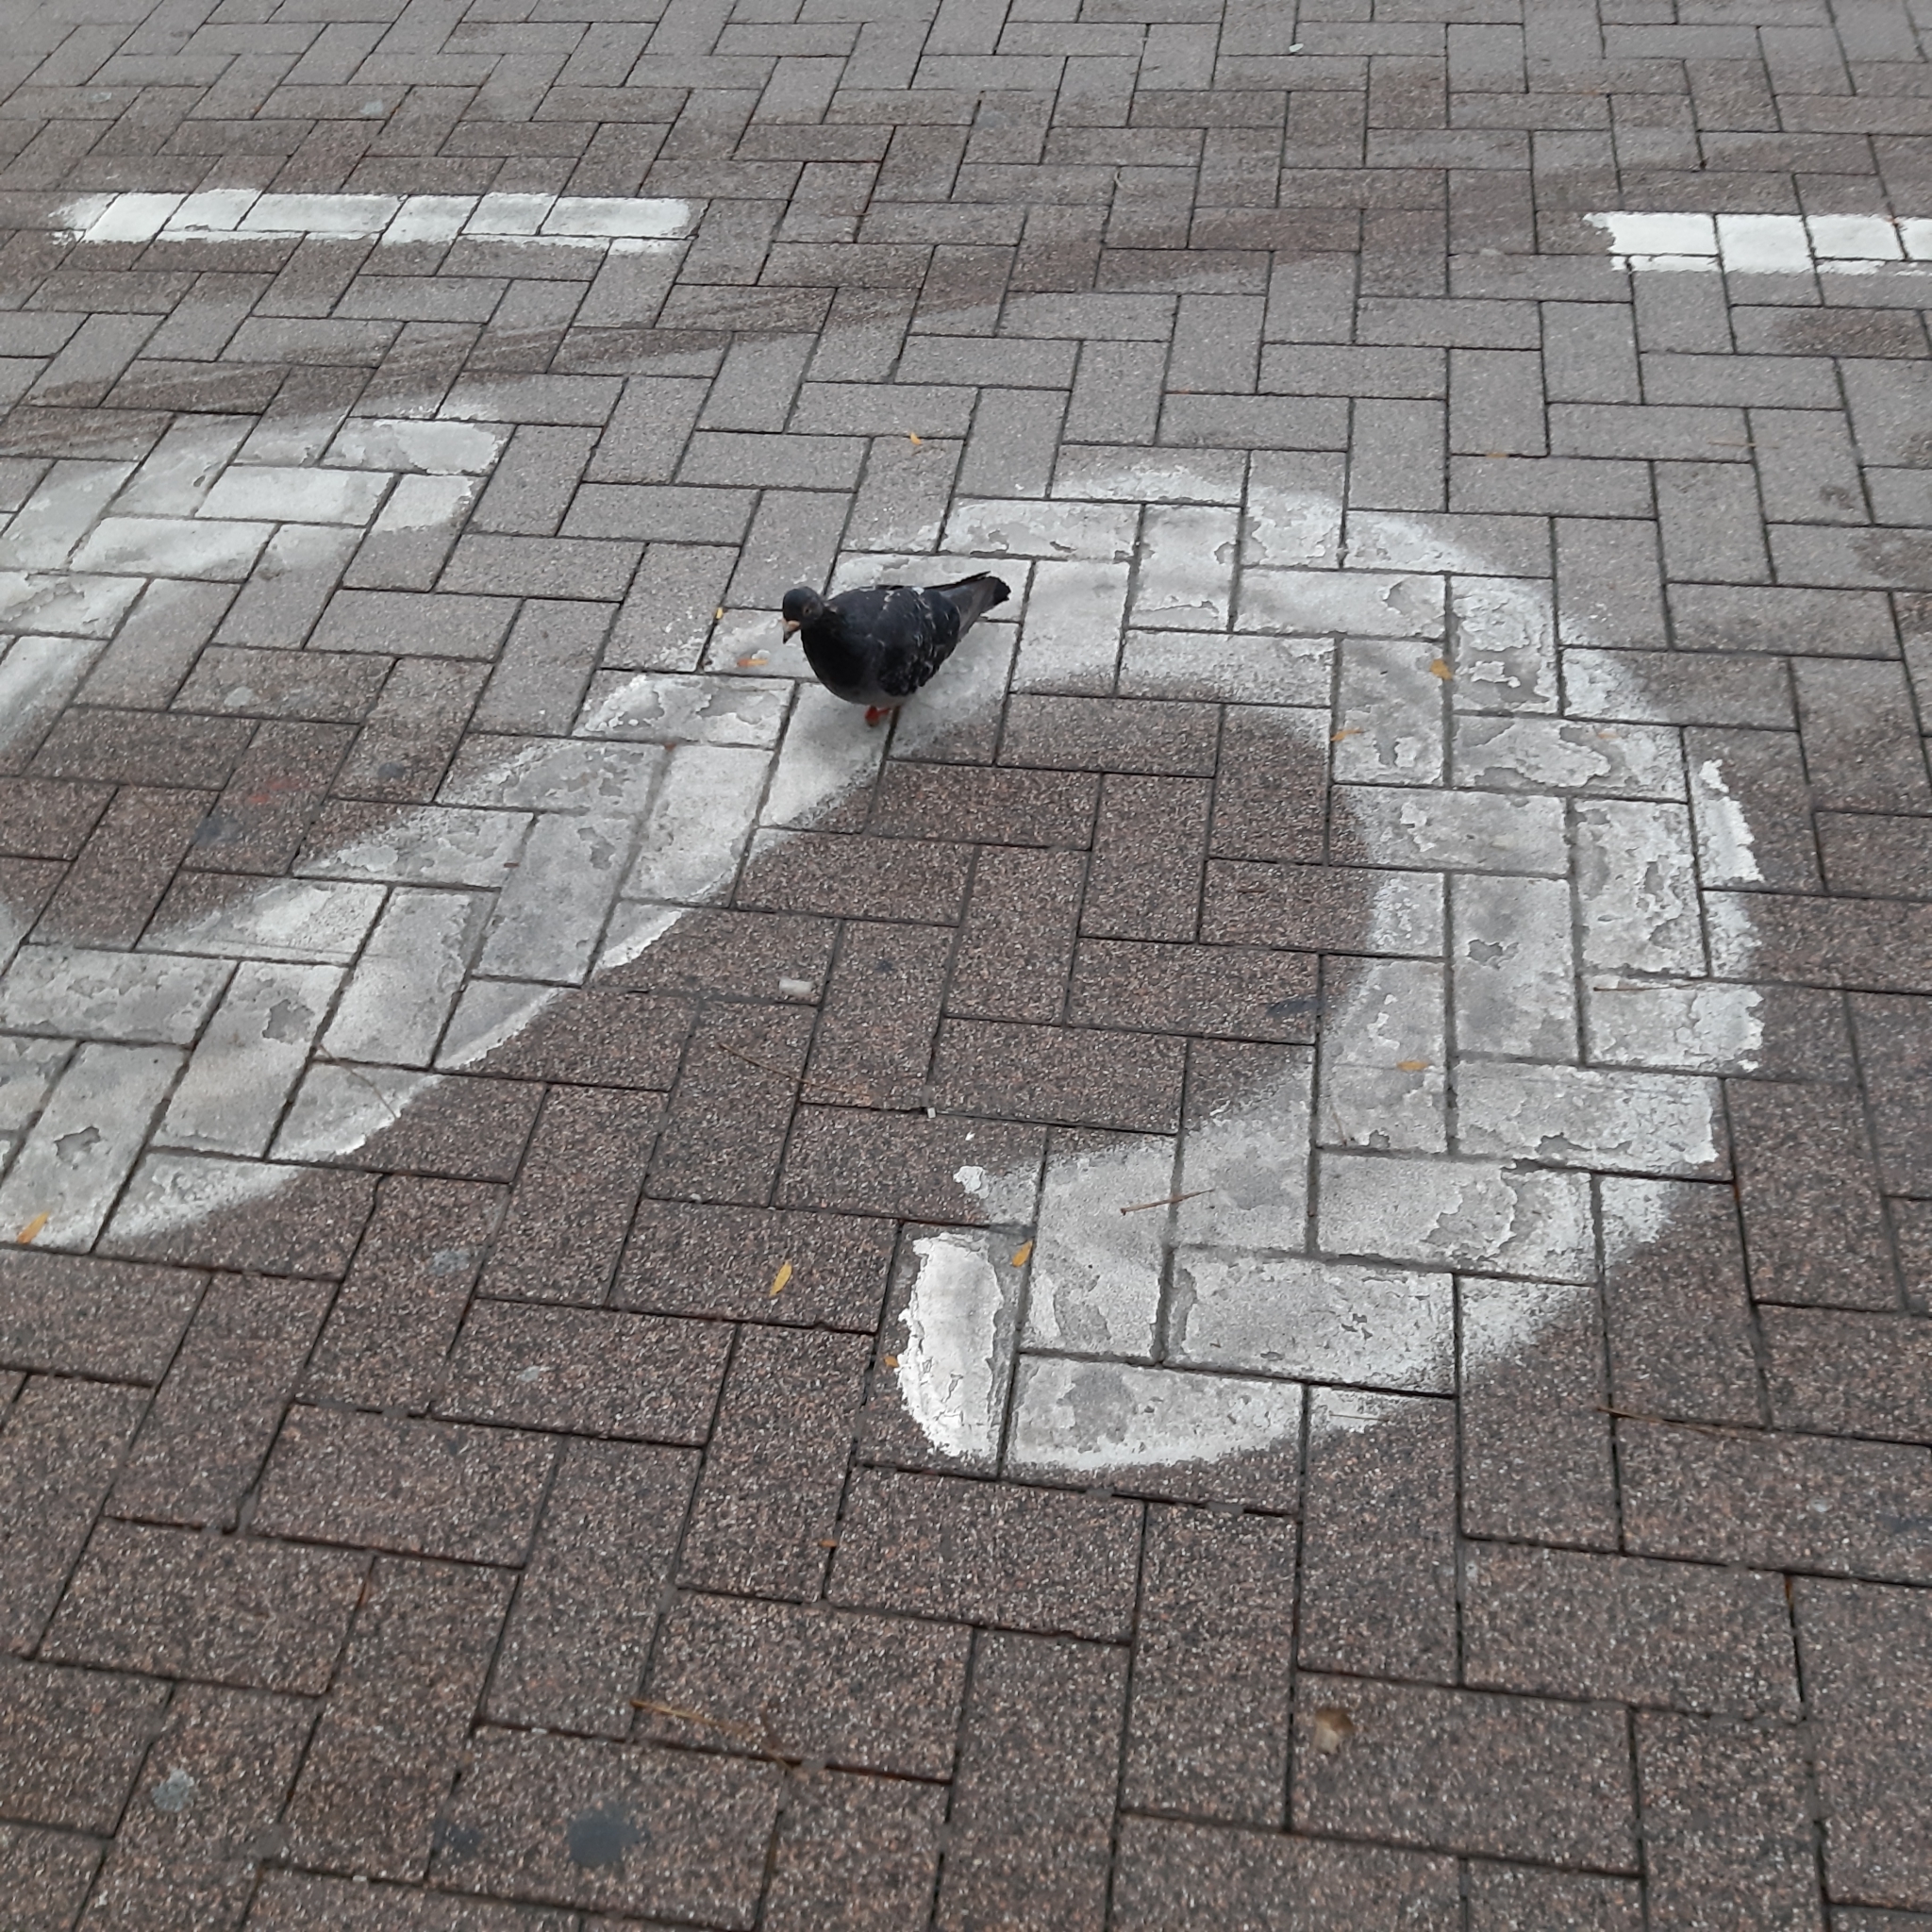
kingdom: Animalia
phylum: Chordata
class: Aves
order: Columbiformes
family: Columbidae
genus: Columba
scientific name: Columba livia
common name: Rock pigeon
